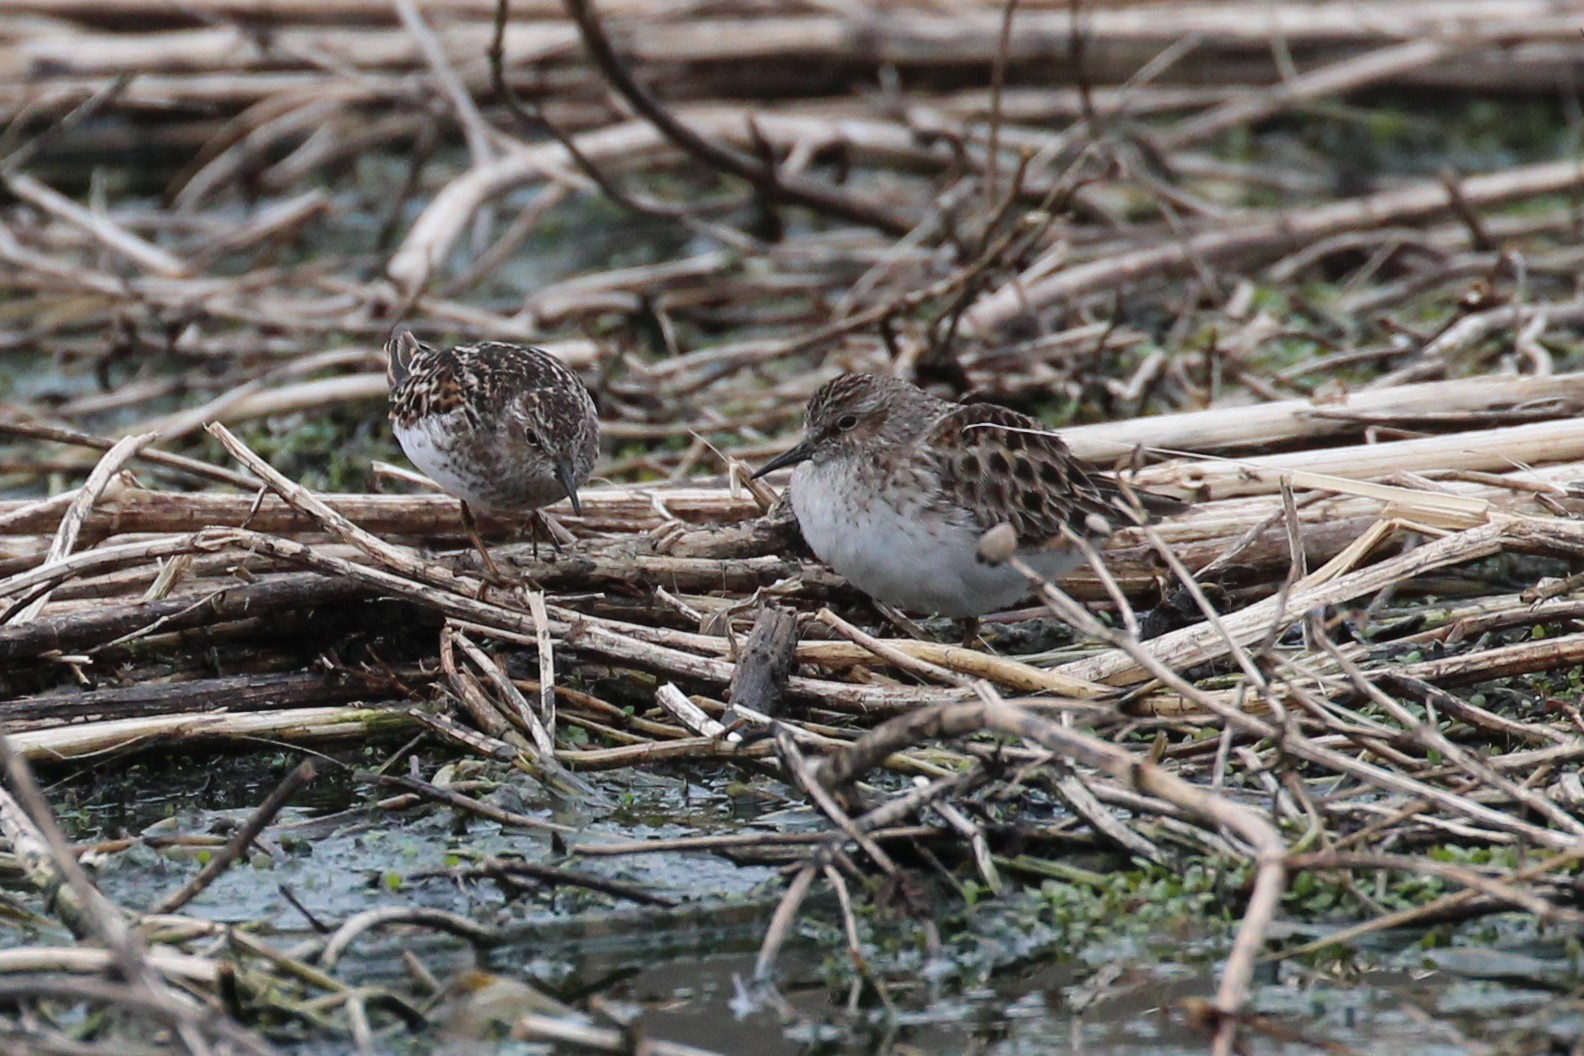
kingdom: Animalia
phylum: Chordata
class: Aves
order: Charadriiformes
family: Scolopacidae
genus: Calidris
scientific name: Calidris pusilla
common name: Semipalmated sandpiper
